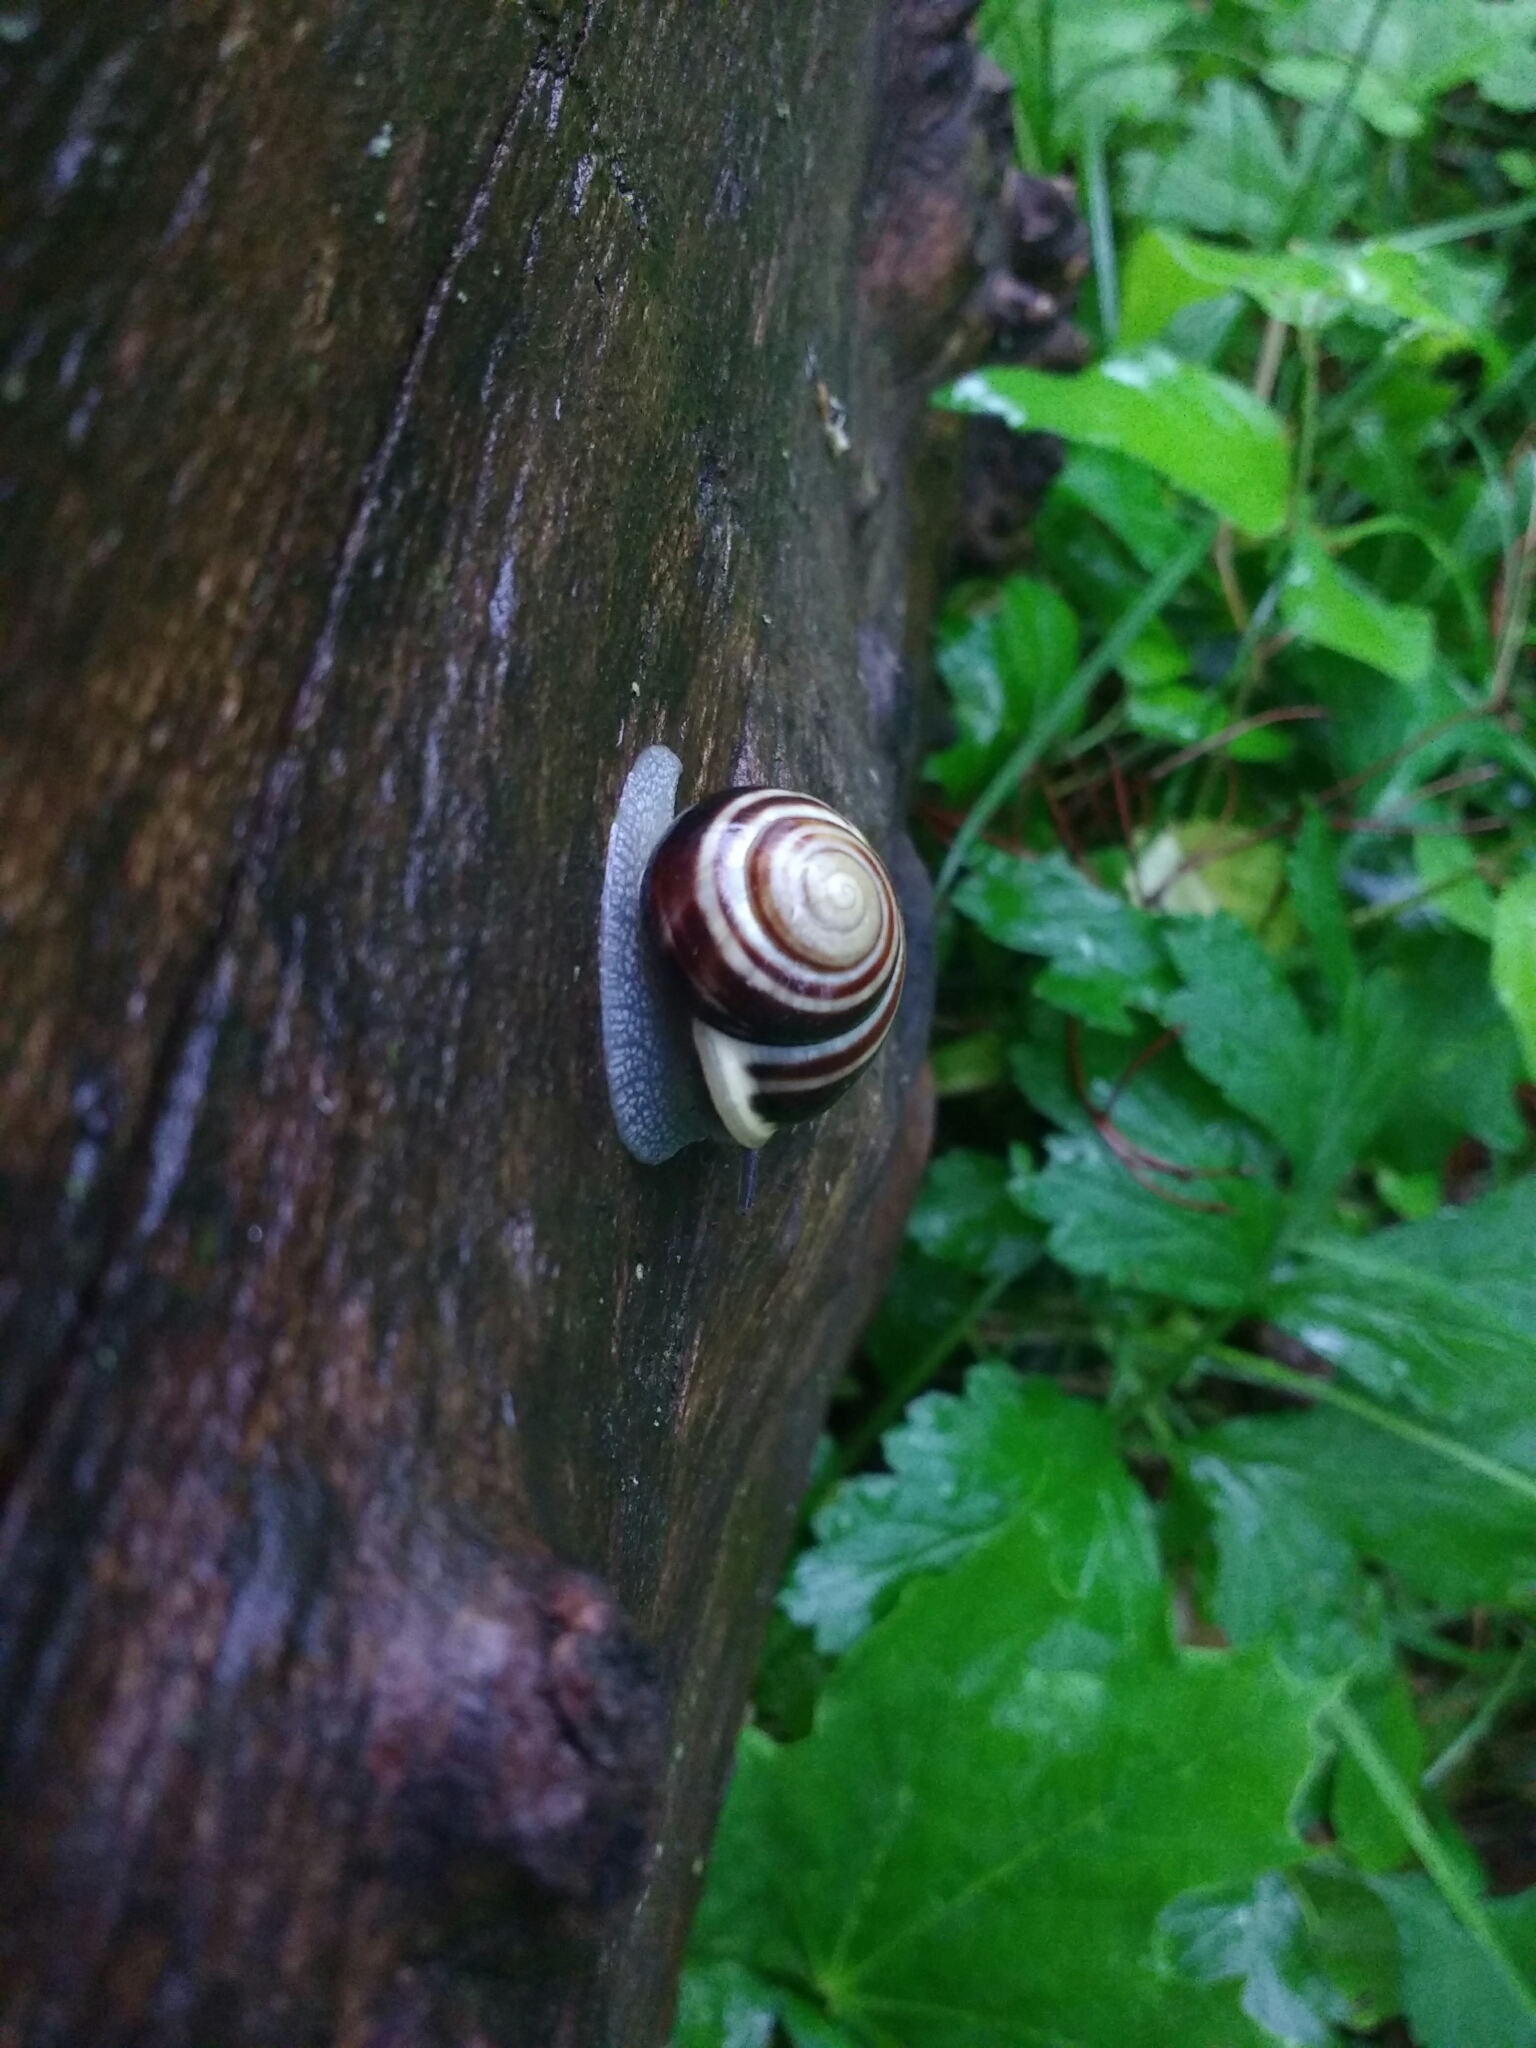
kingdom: Animalia
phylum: Mollusca
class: Gastropoda
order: Stylommatophora
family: Helicidae
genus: Cepaea
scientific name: Cepaea hortensis
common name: White-lip gardensnail
